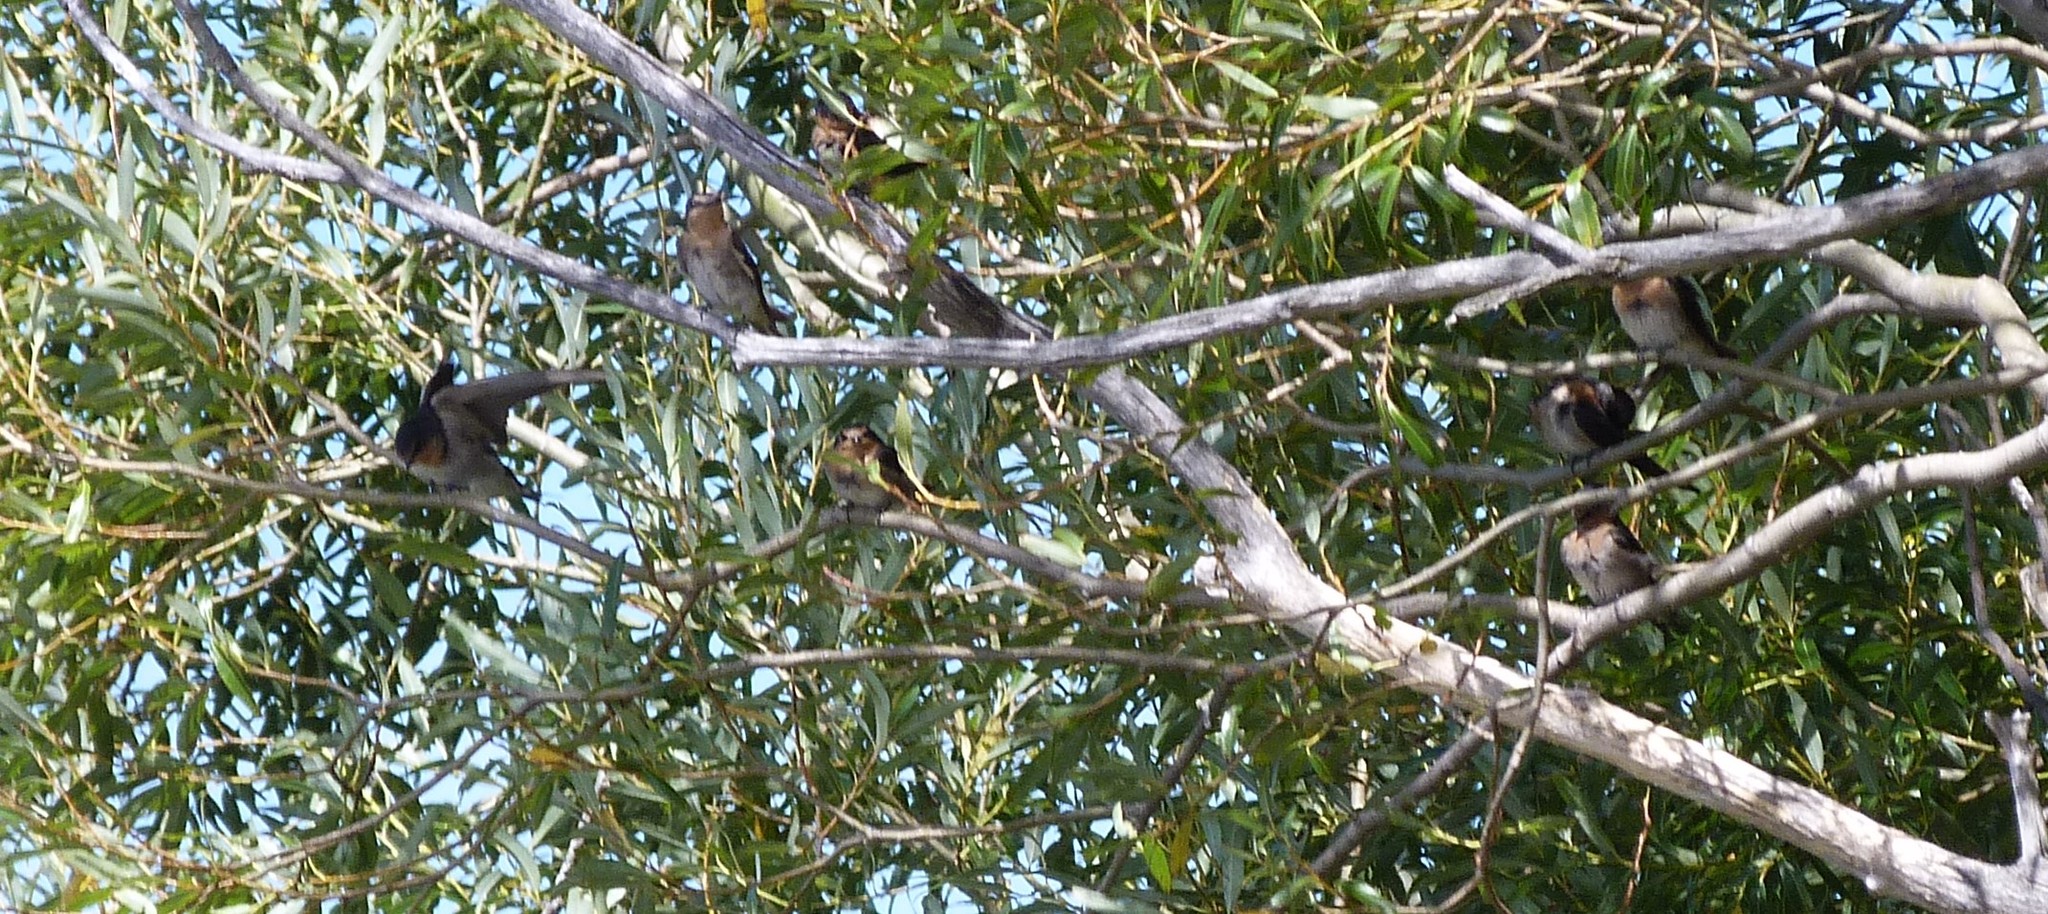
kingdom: Animalia
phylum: Chordata
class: Aves
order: Passeriformes
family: Hirundinidae
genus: Hirundo
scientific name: Hirundo neoxena
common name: Welcome swallow
